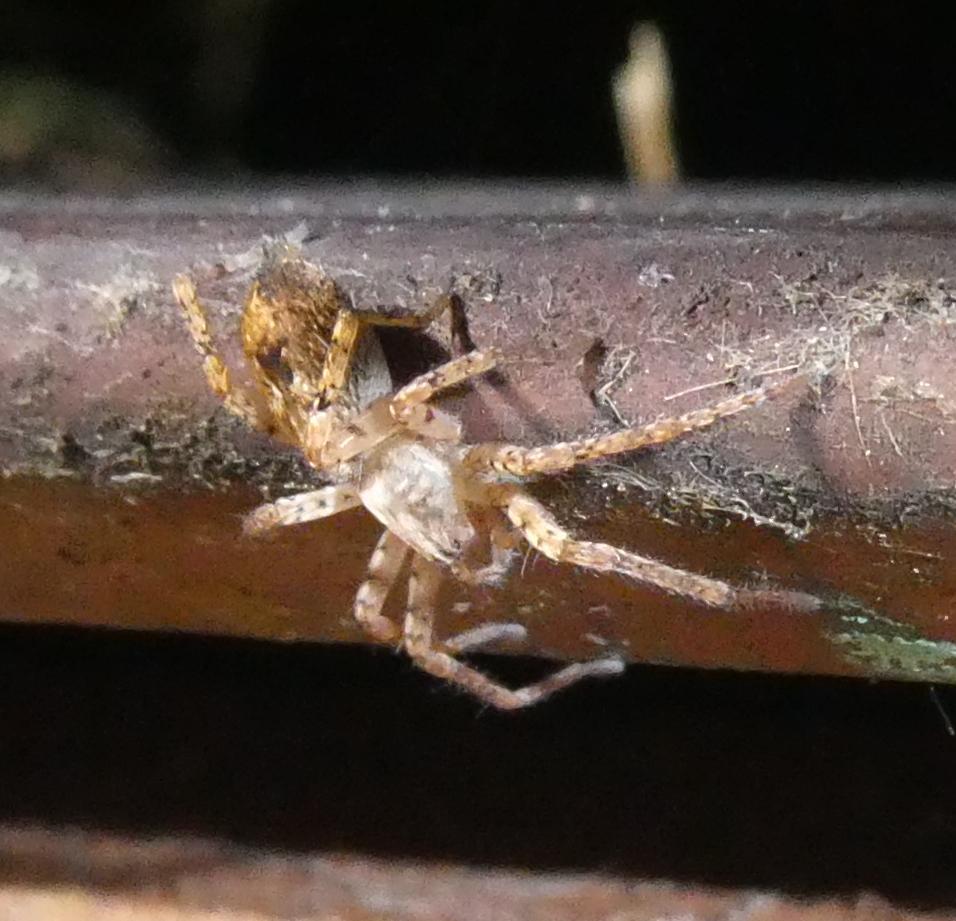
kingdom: Animalia
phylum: Arthropoda
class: Arachnida
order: Araneae
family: Anyphaenidae
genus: Anyphaena
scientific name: Anyphaena accentuata
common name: Buzzing spider
